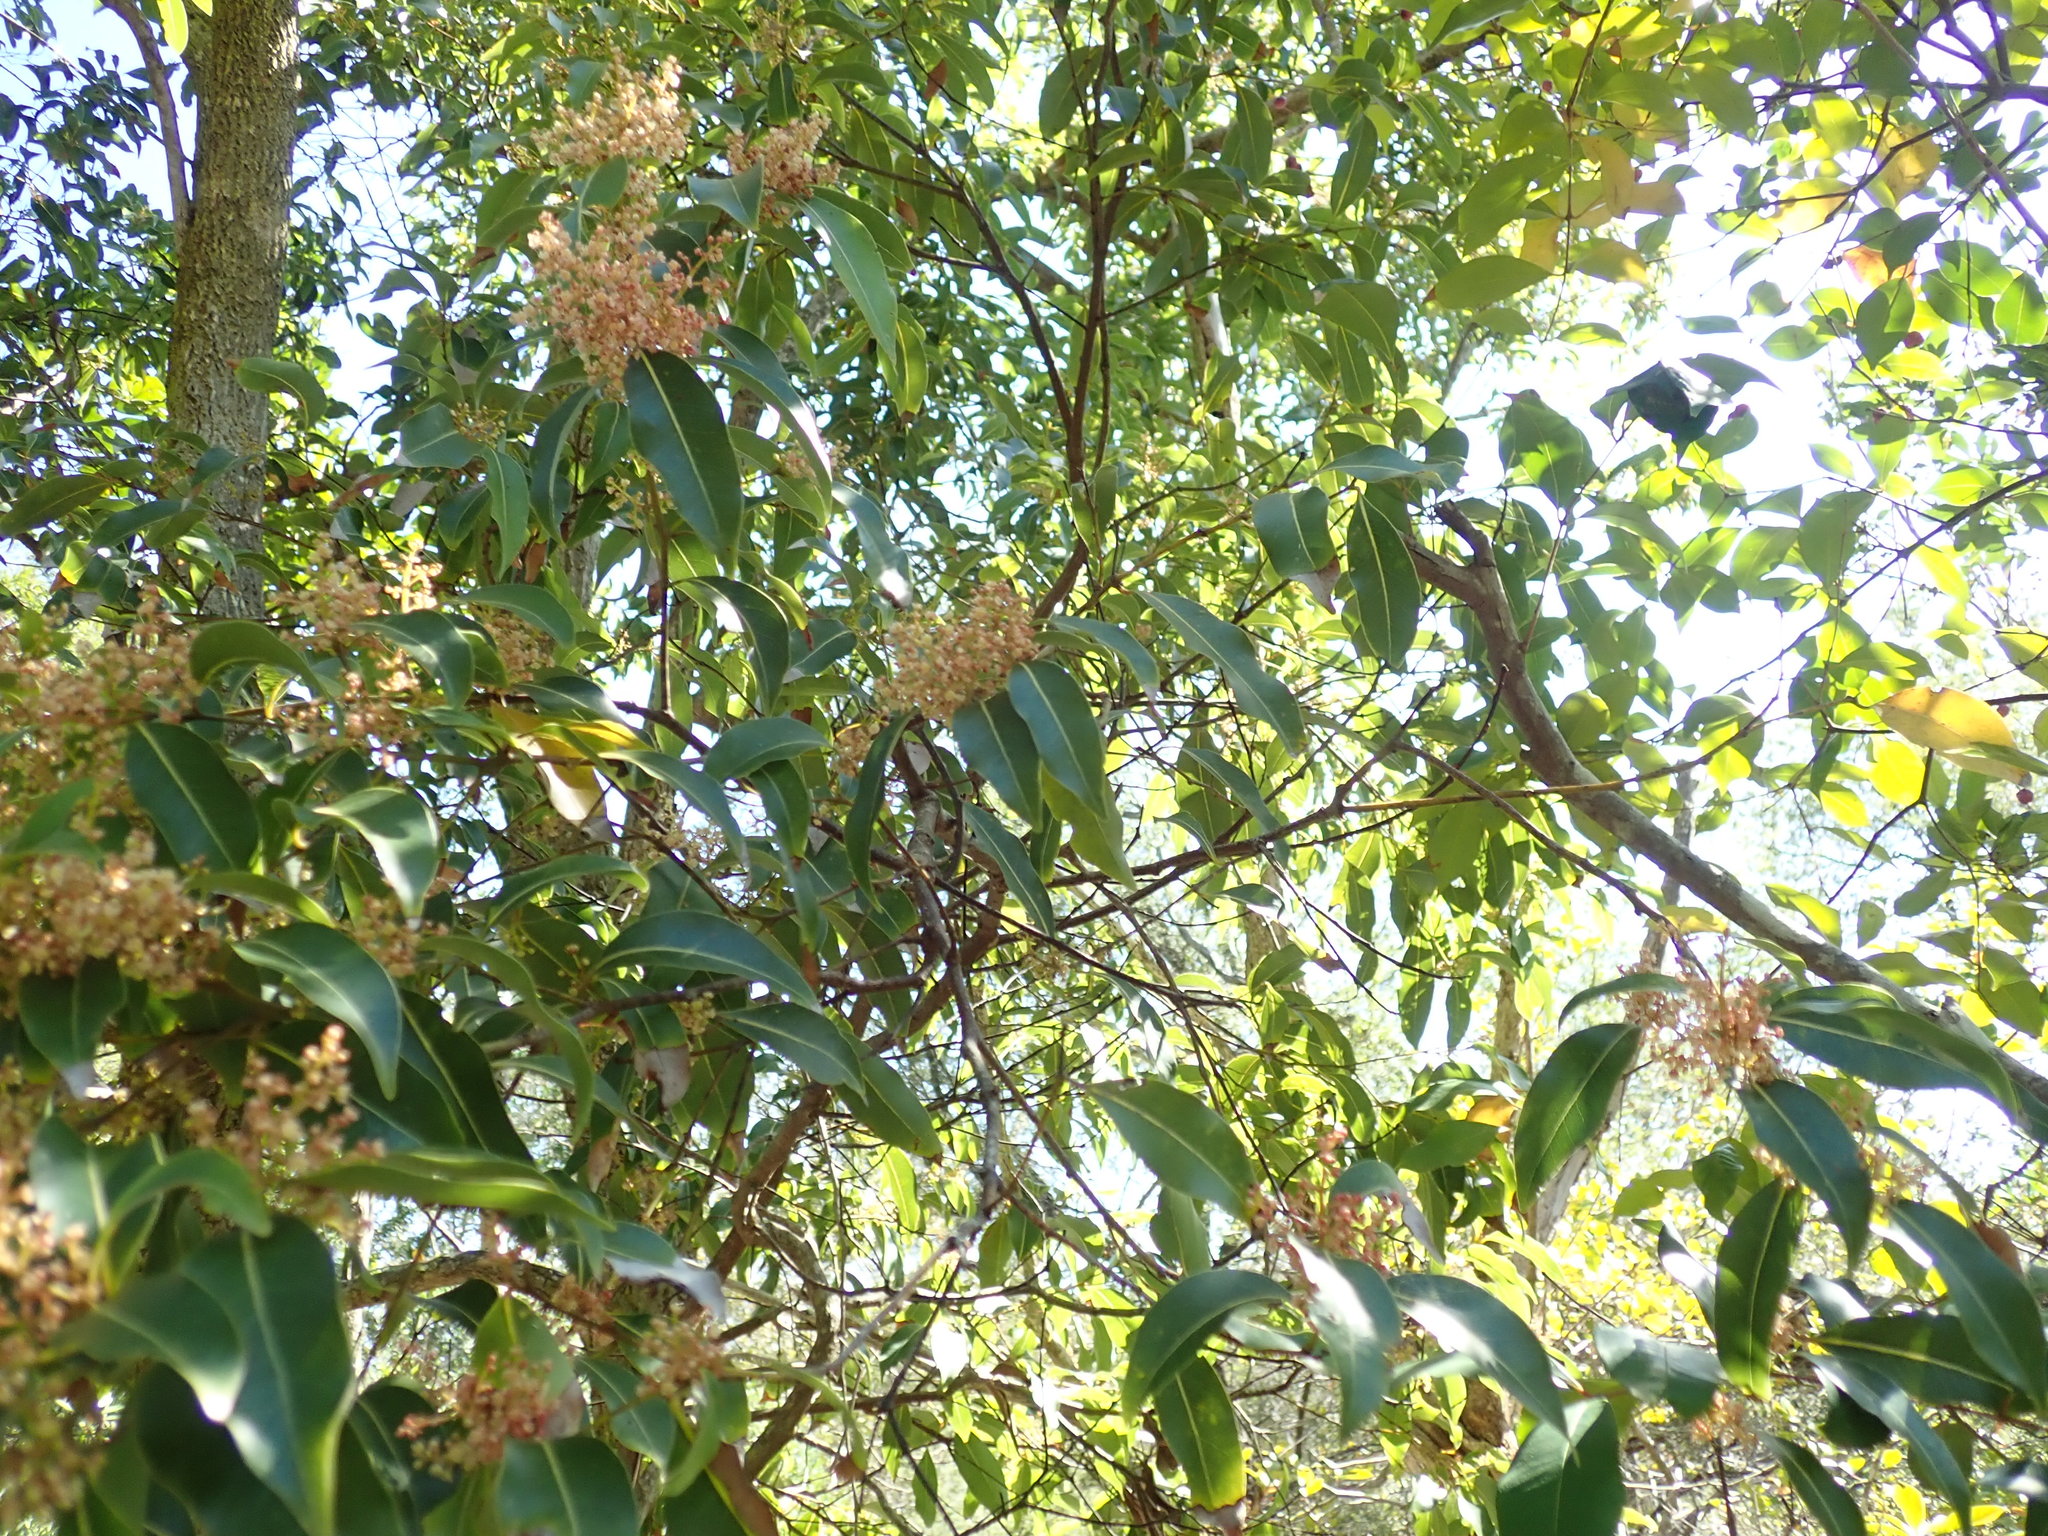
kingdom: Plantae
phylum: Tracheophyta
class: Magnoliopsida
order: Laurales
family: Lauraceae
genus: Endiandra
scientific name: Endiandra sieberi
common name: Corkwood
